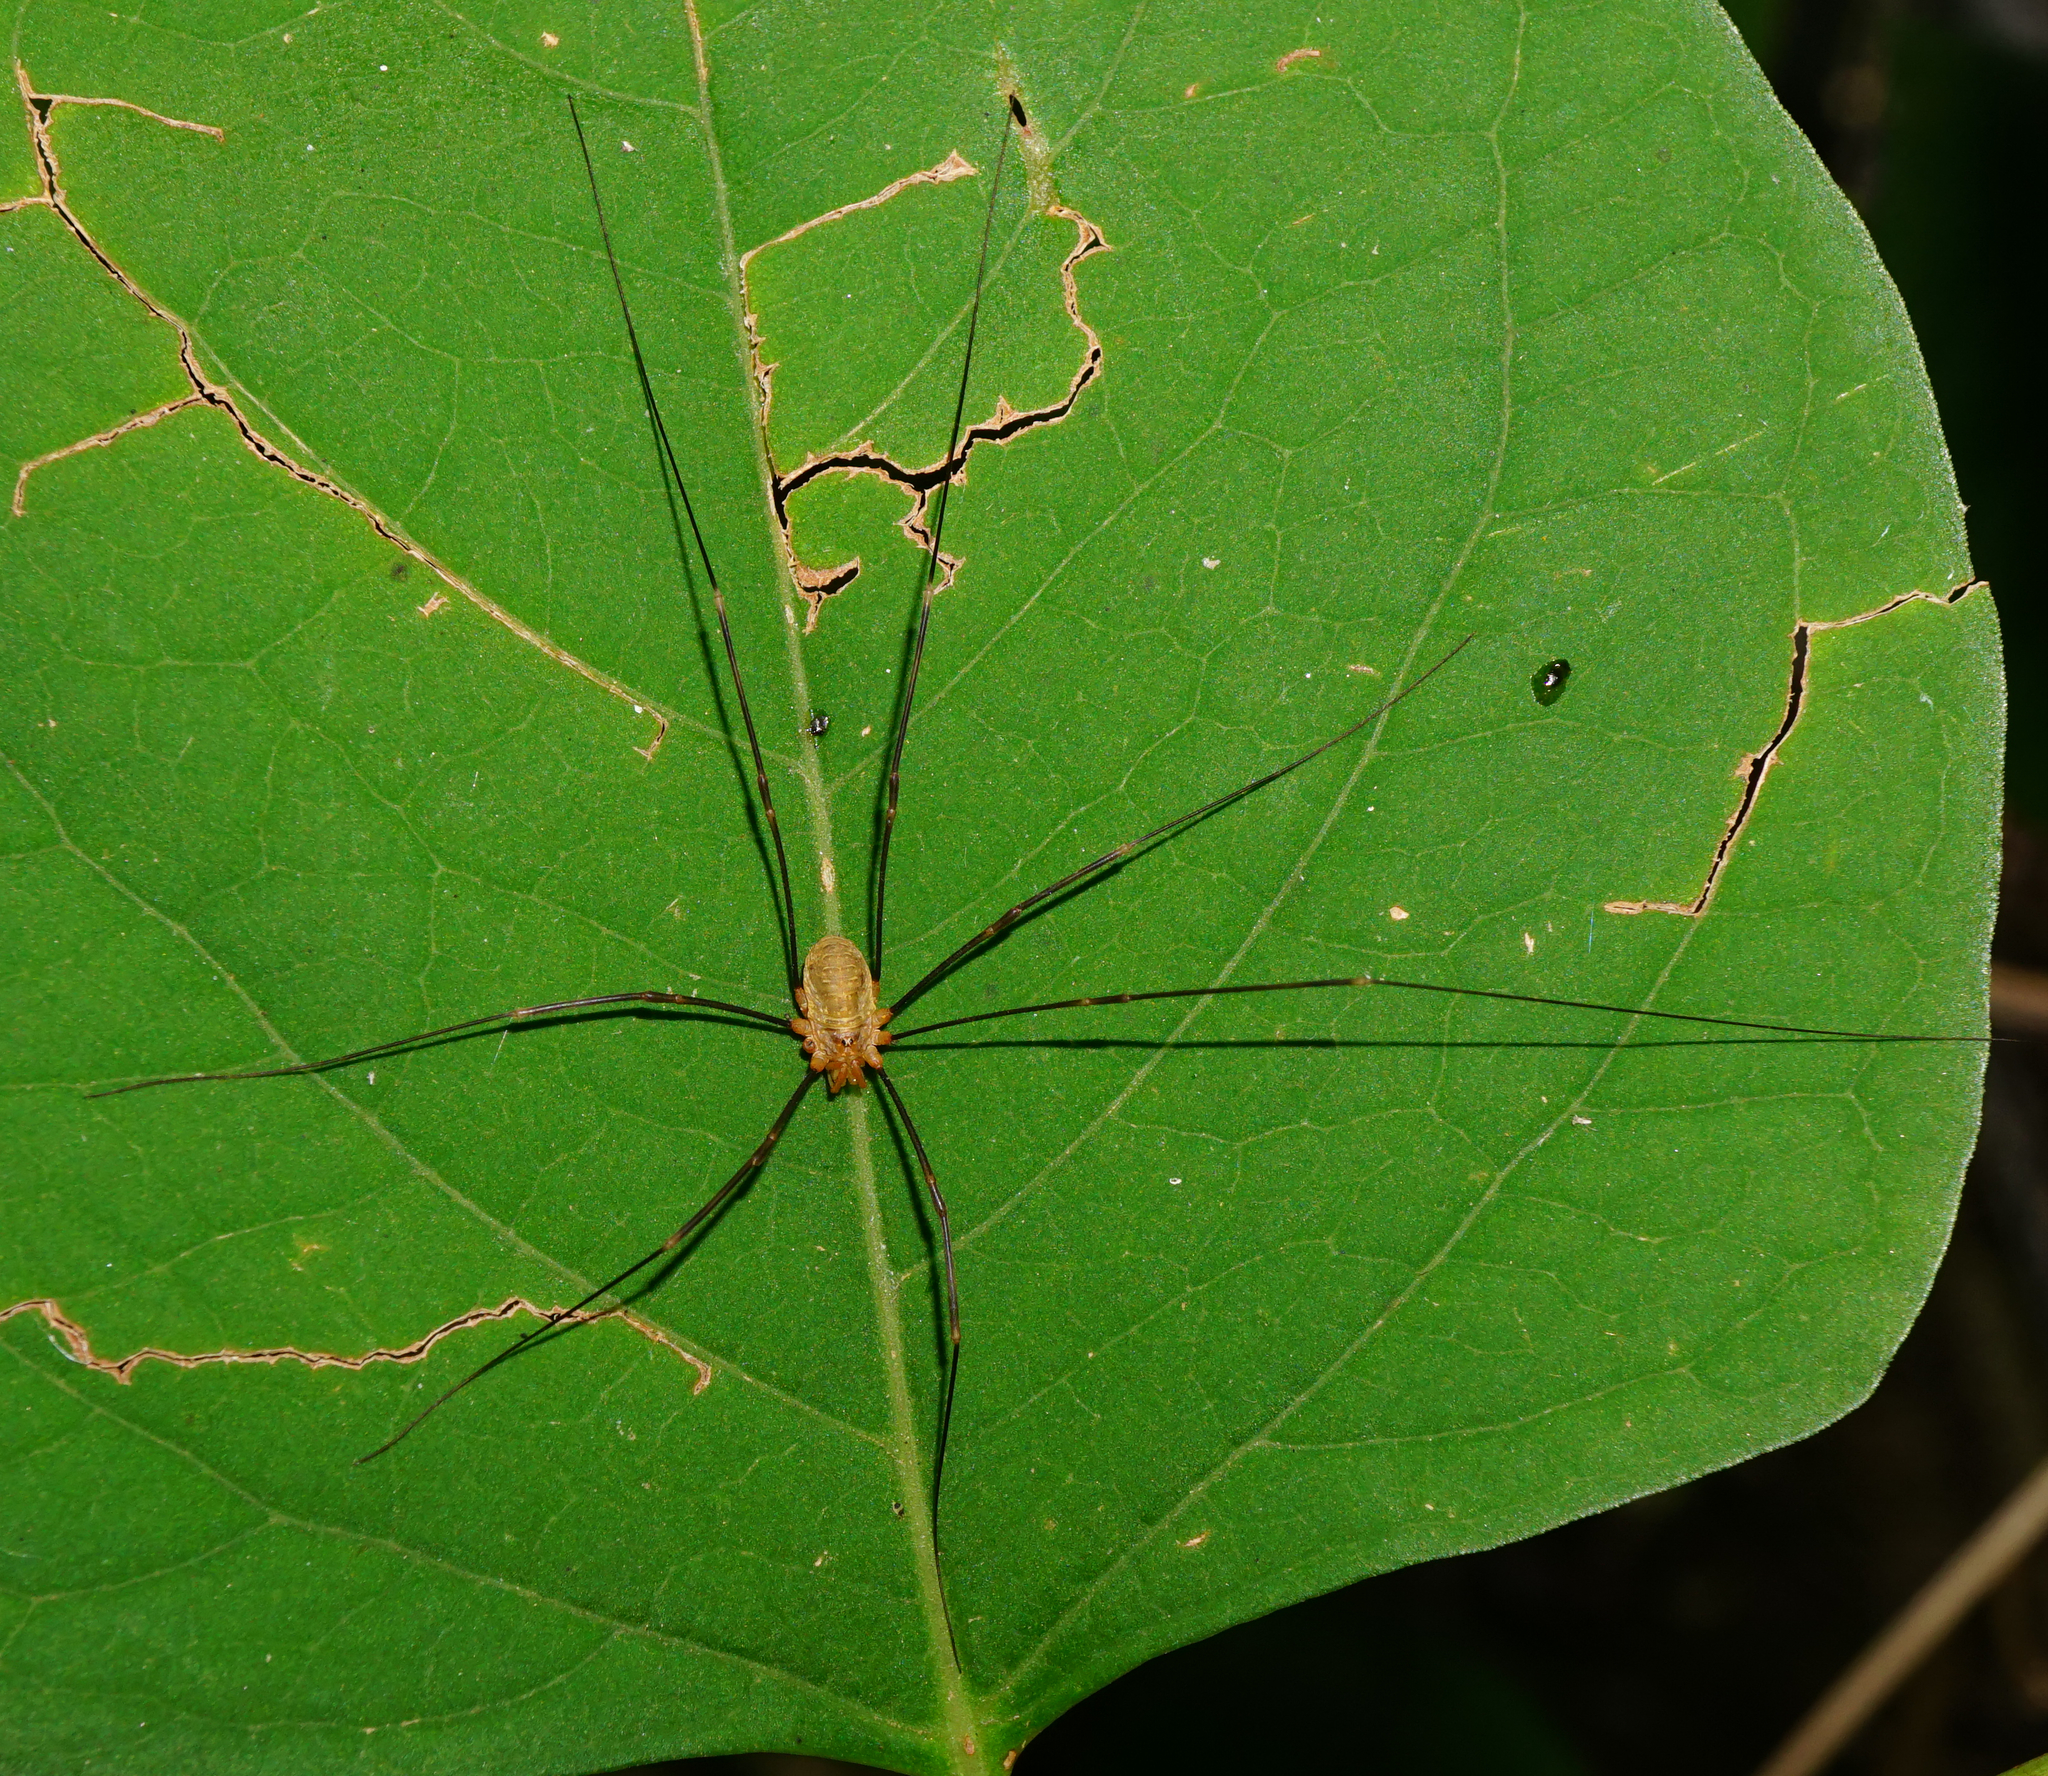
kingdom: Animalia
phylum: Arthropoda
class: Arachnida
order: Opiliones
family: Phalangiidae
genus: Opilio
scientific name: Opilio canestrinii
